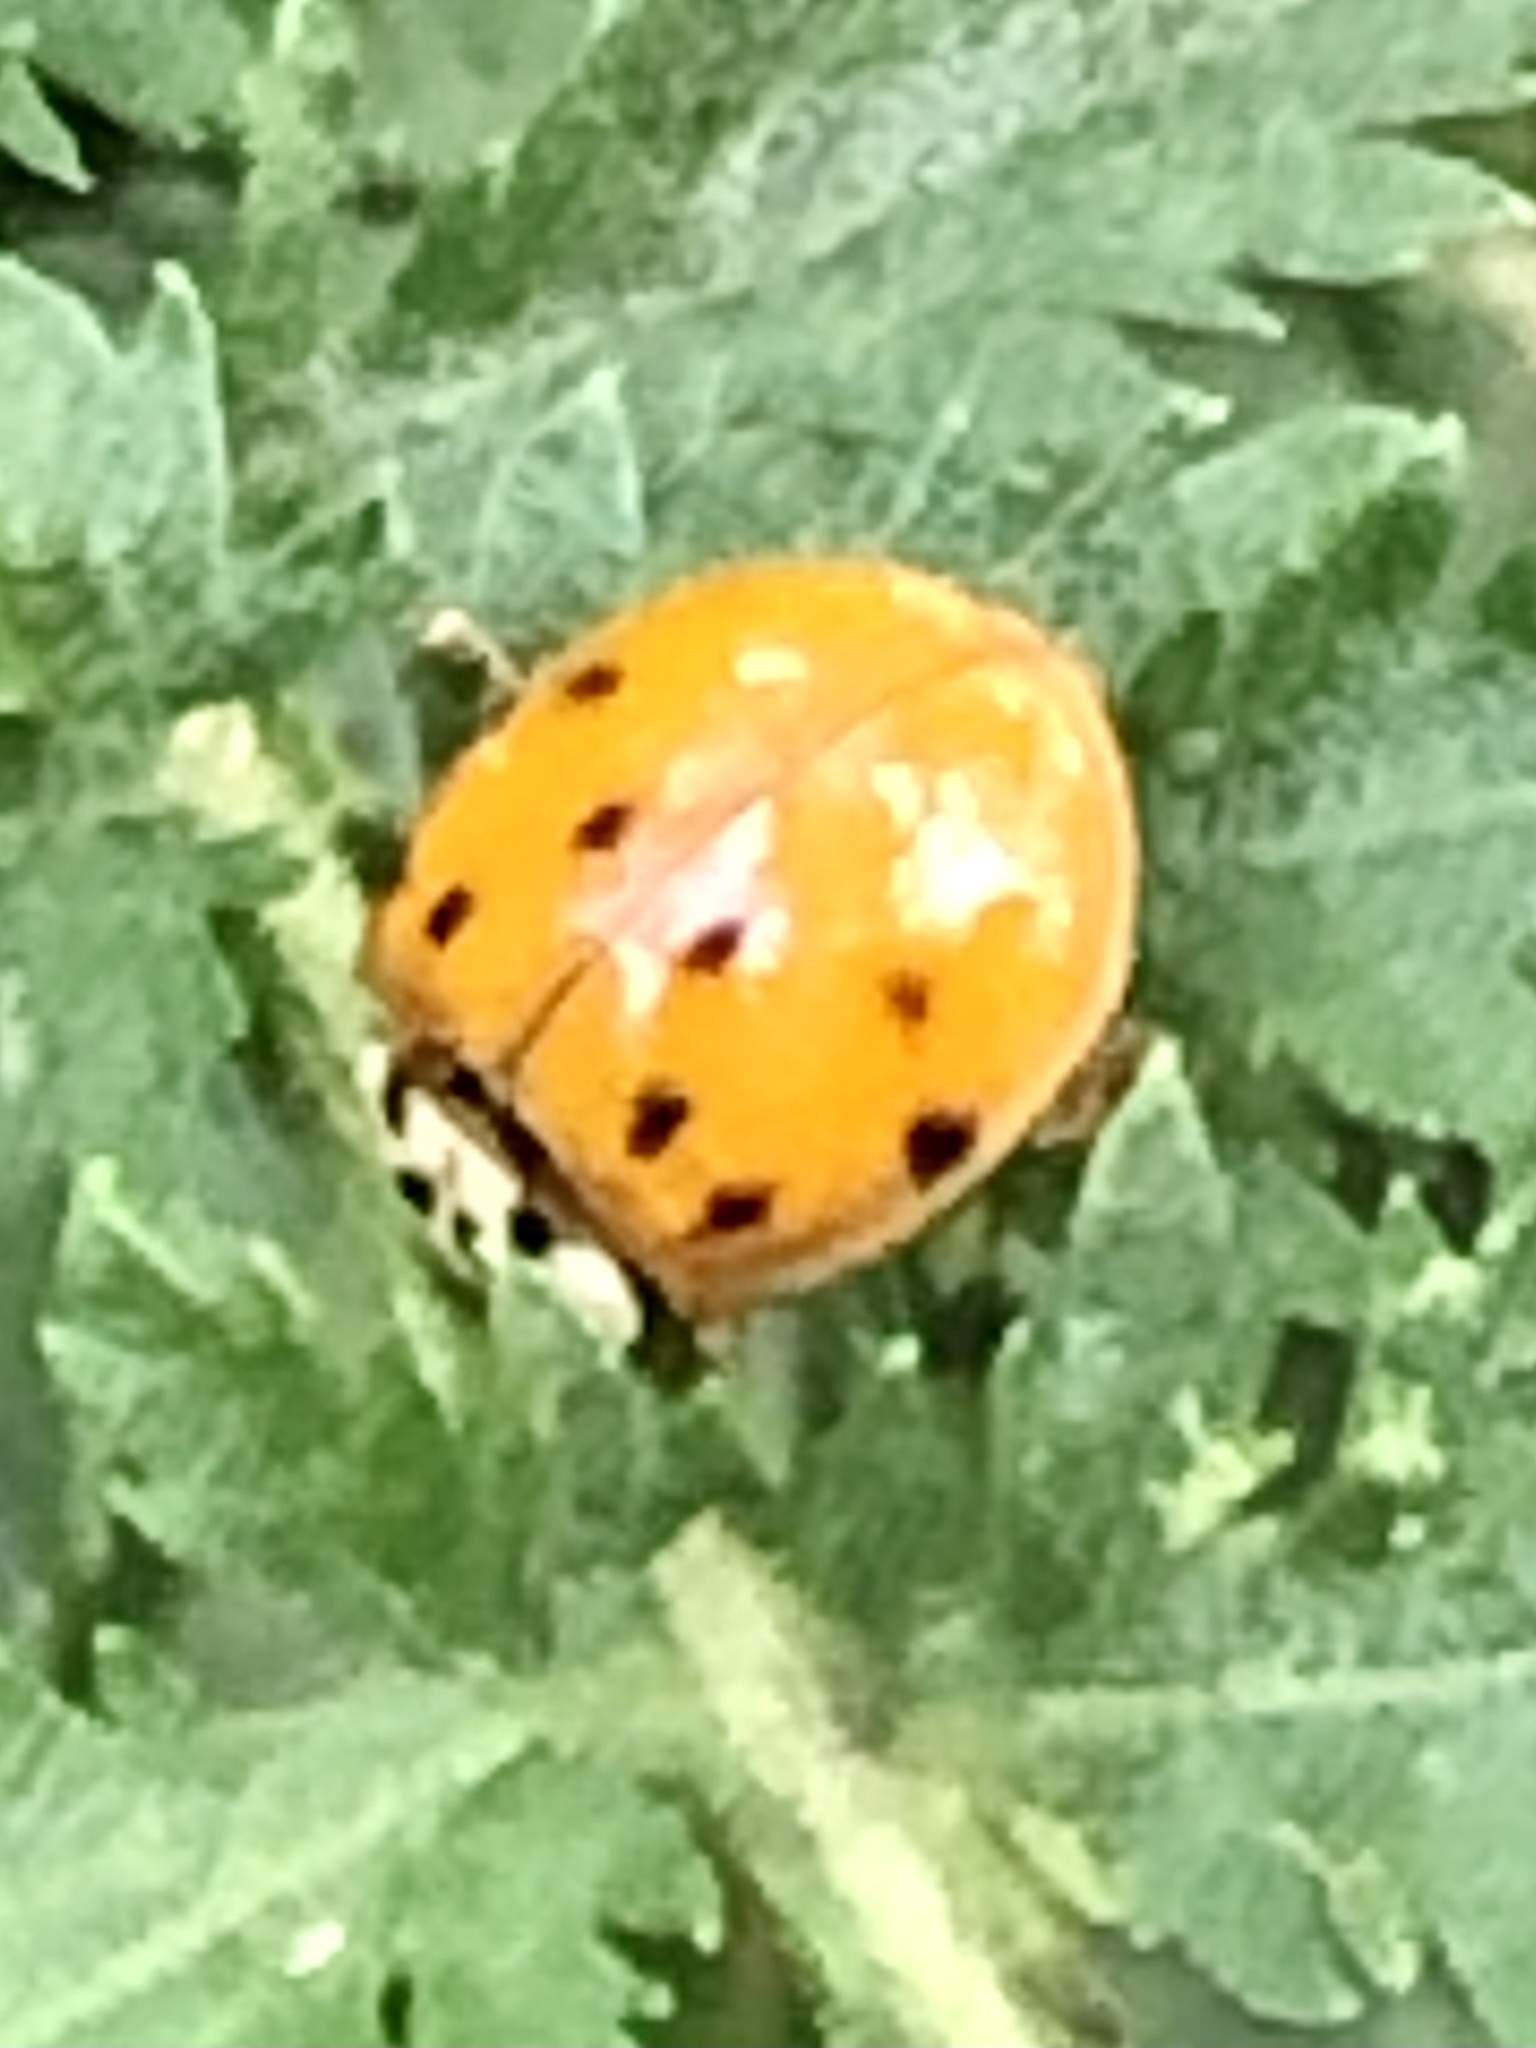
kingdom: Animalia
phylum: Arthropoda
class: Insecta
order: Coleoptera
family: Coccinellidae
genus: Harmonia
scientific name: Harmonia axyridis
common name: Harlequin ladybird
